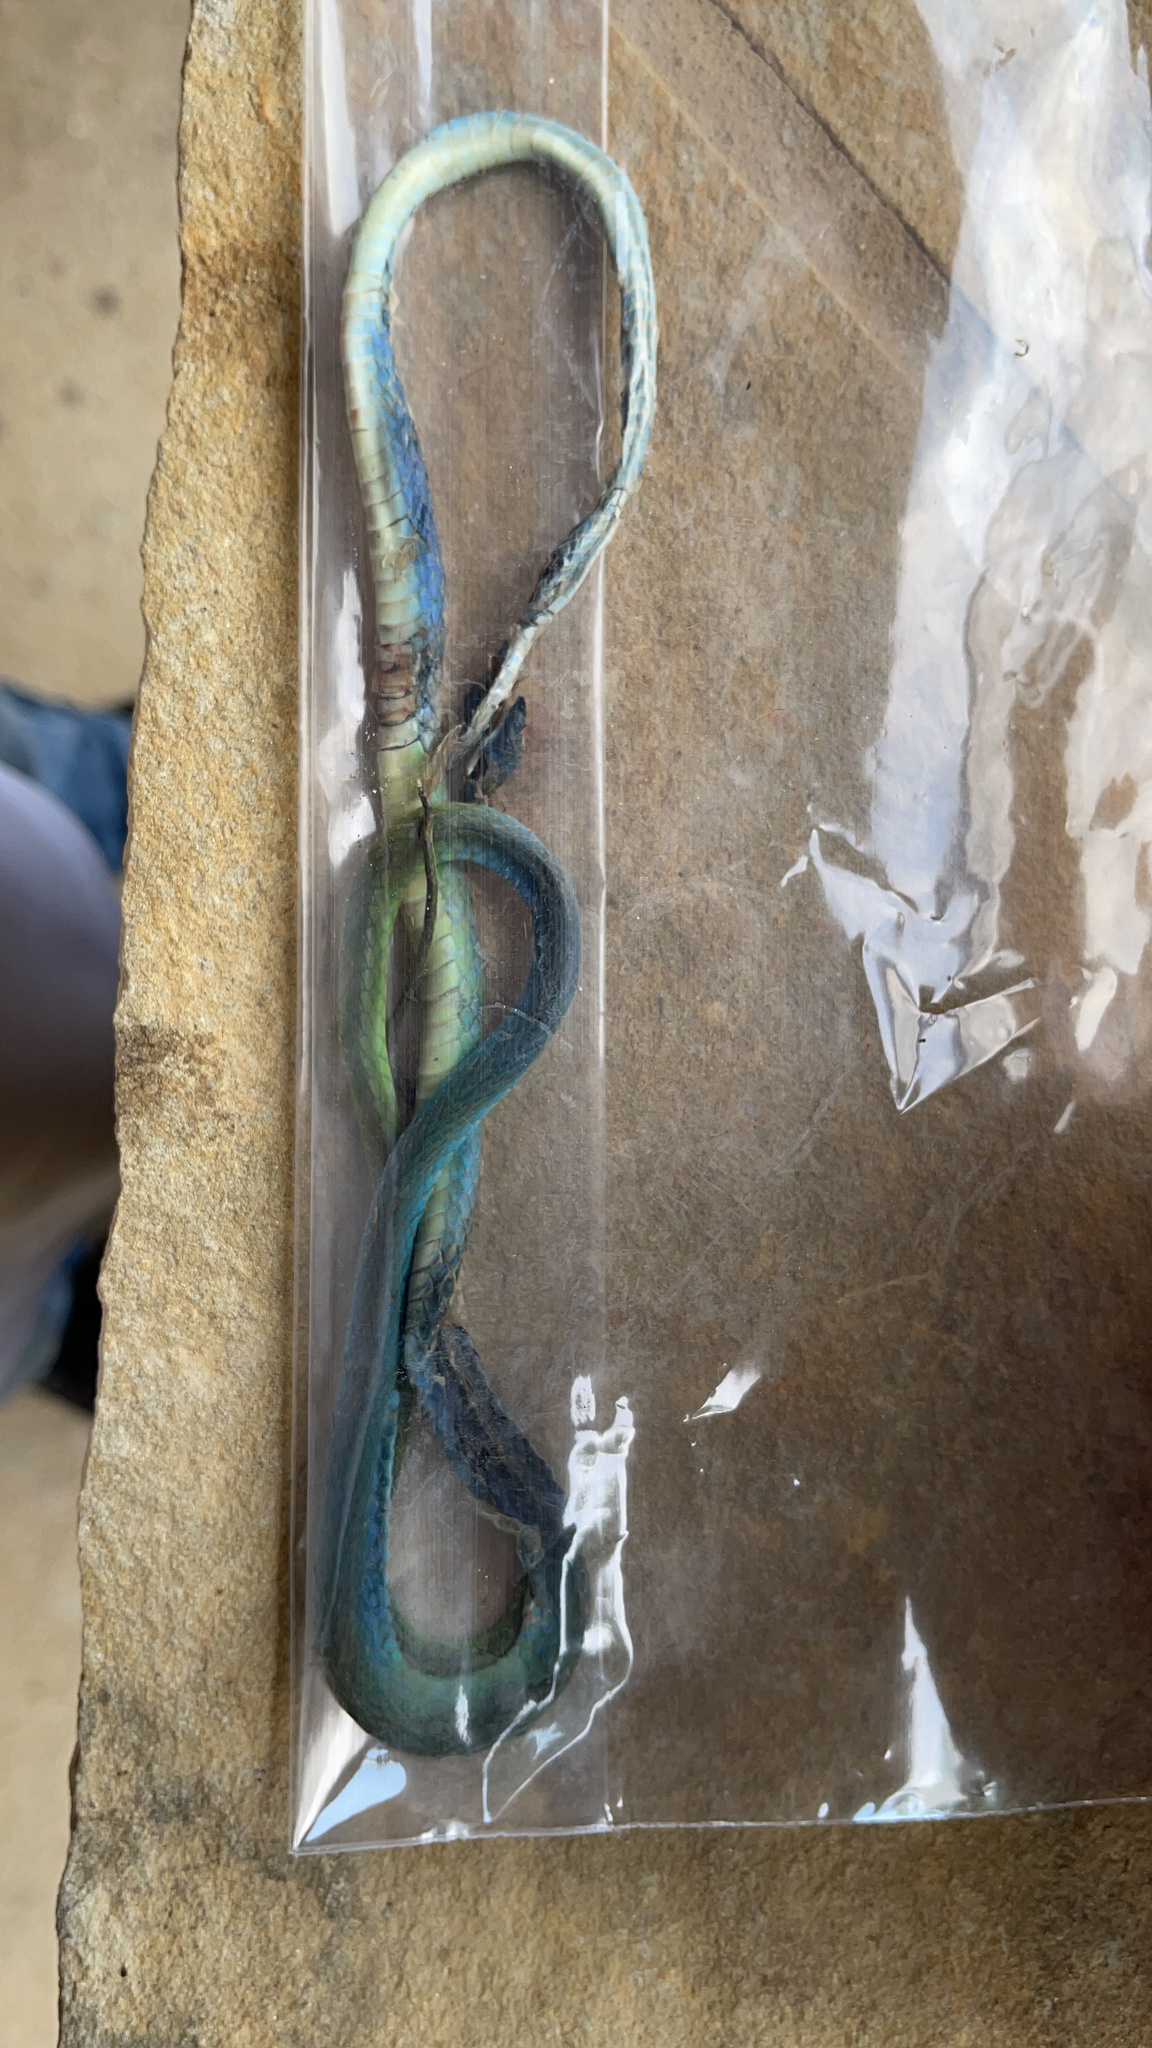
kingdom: Animalia
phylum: Chordata
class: Squamata
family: Colubridae
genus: Opheodrys
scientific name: Opheodrys aestivus
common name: Rough greensnake
